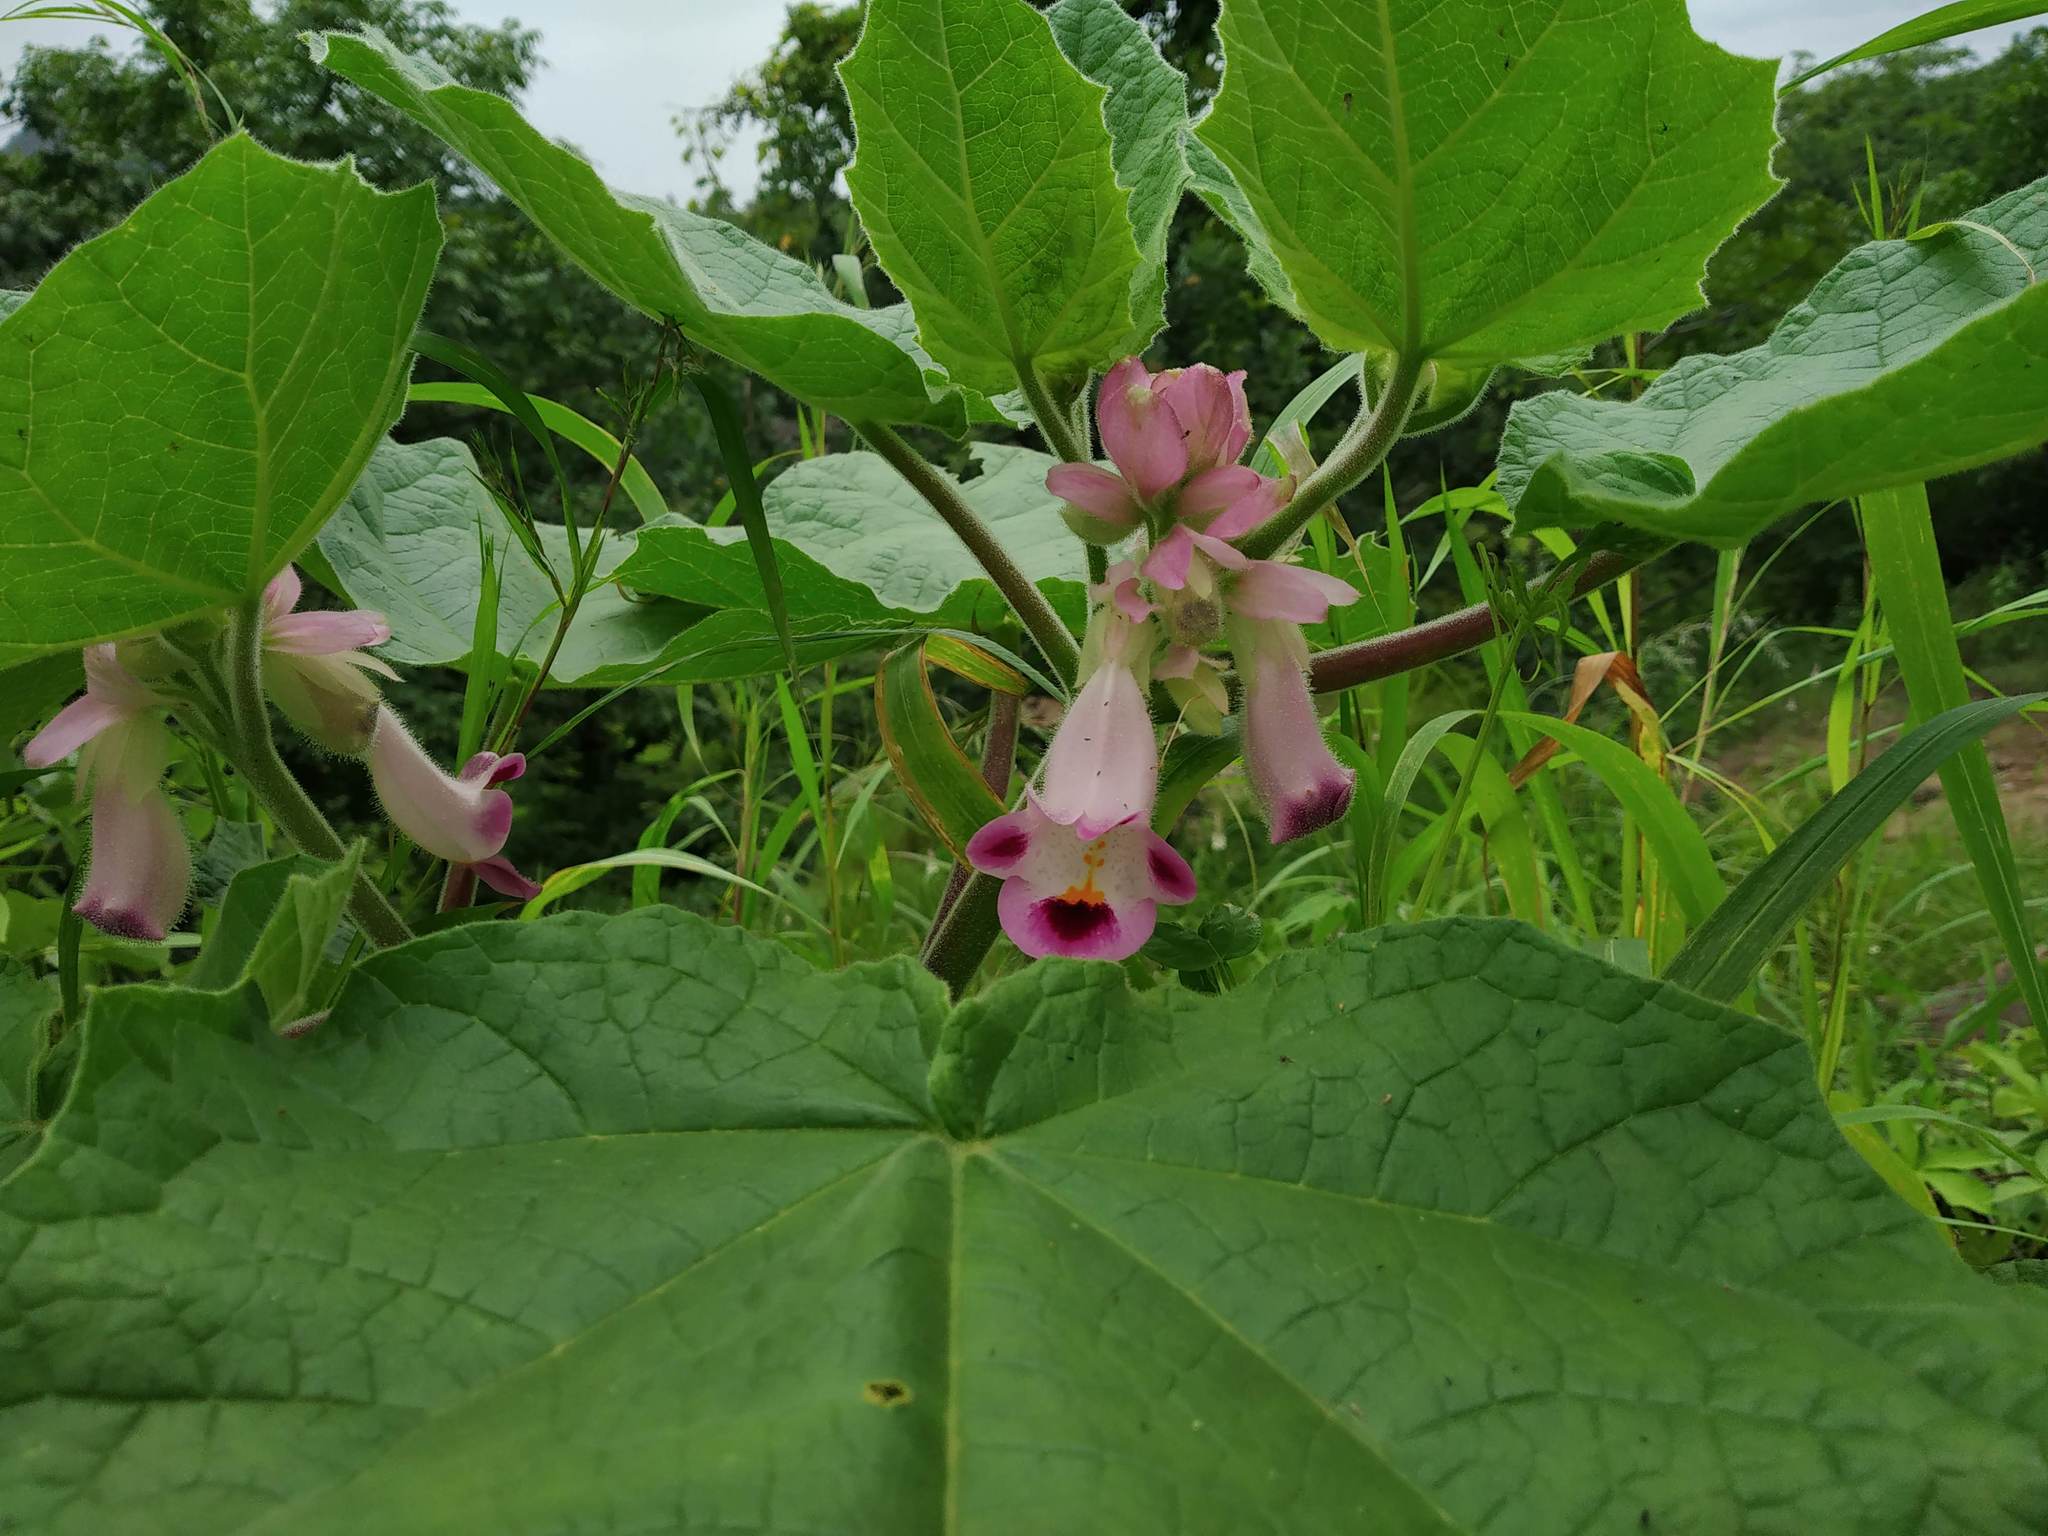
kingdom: Plantae
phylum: Tracheophyta
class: Magnoliopsida
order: Lamiales
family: Martyniaceae
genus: Martynia
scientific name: Martynia annua
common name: Tiger's-claw
